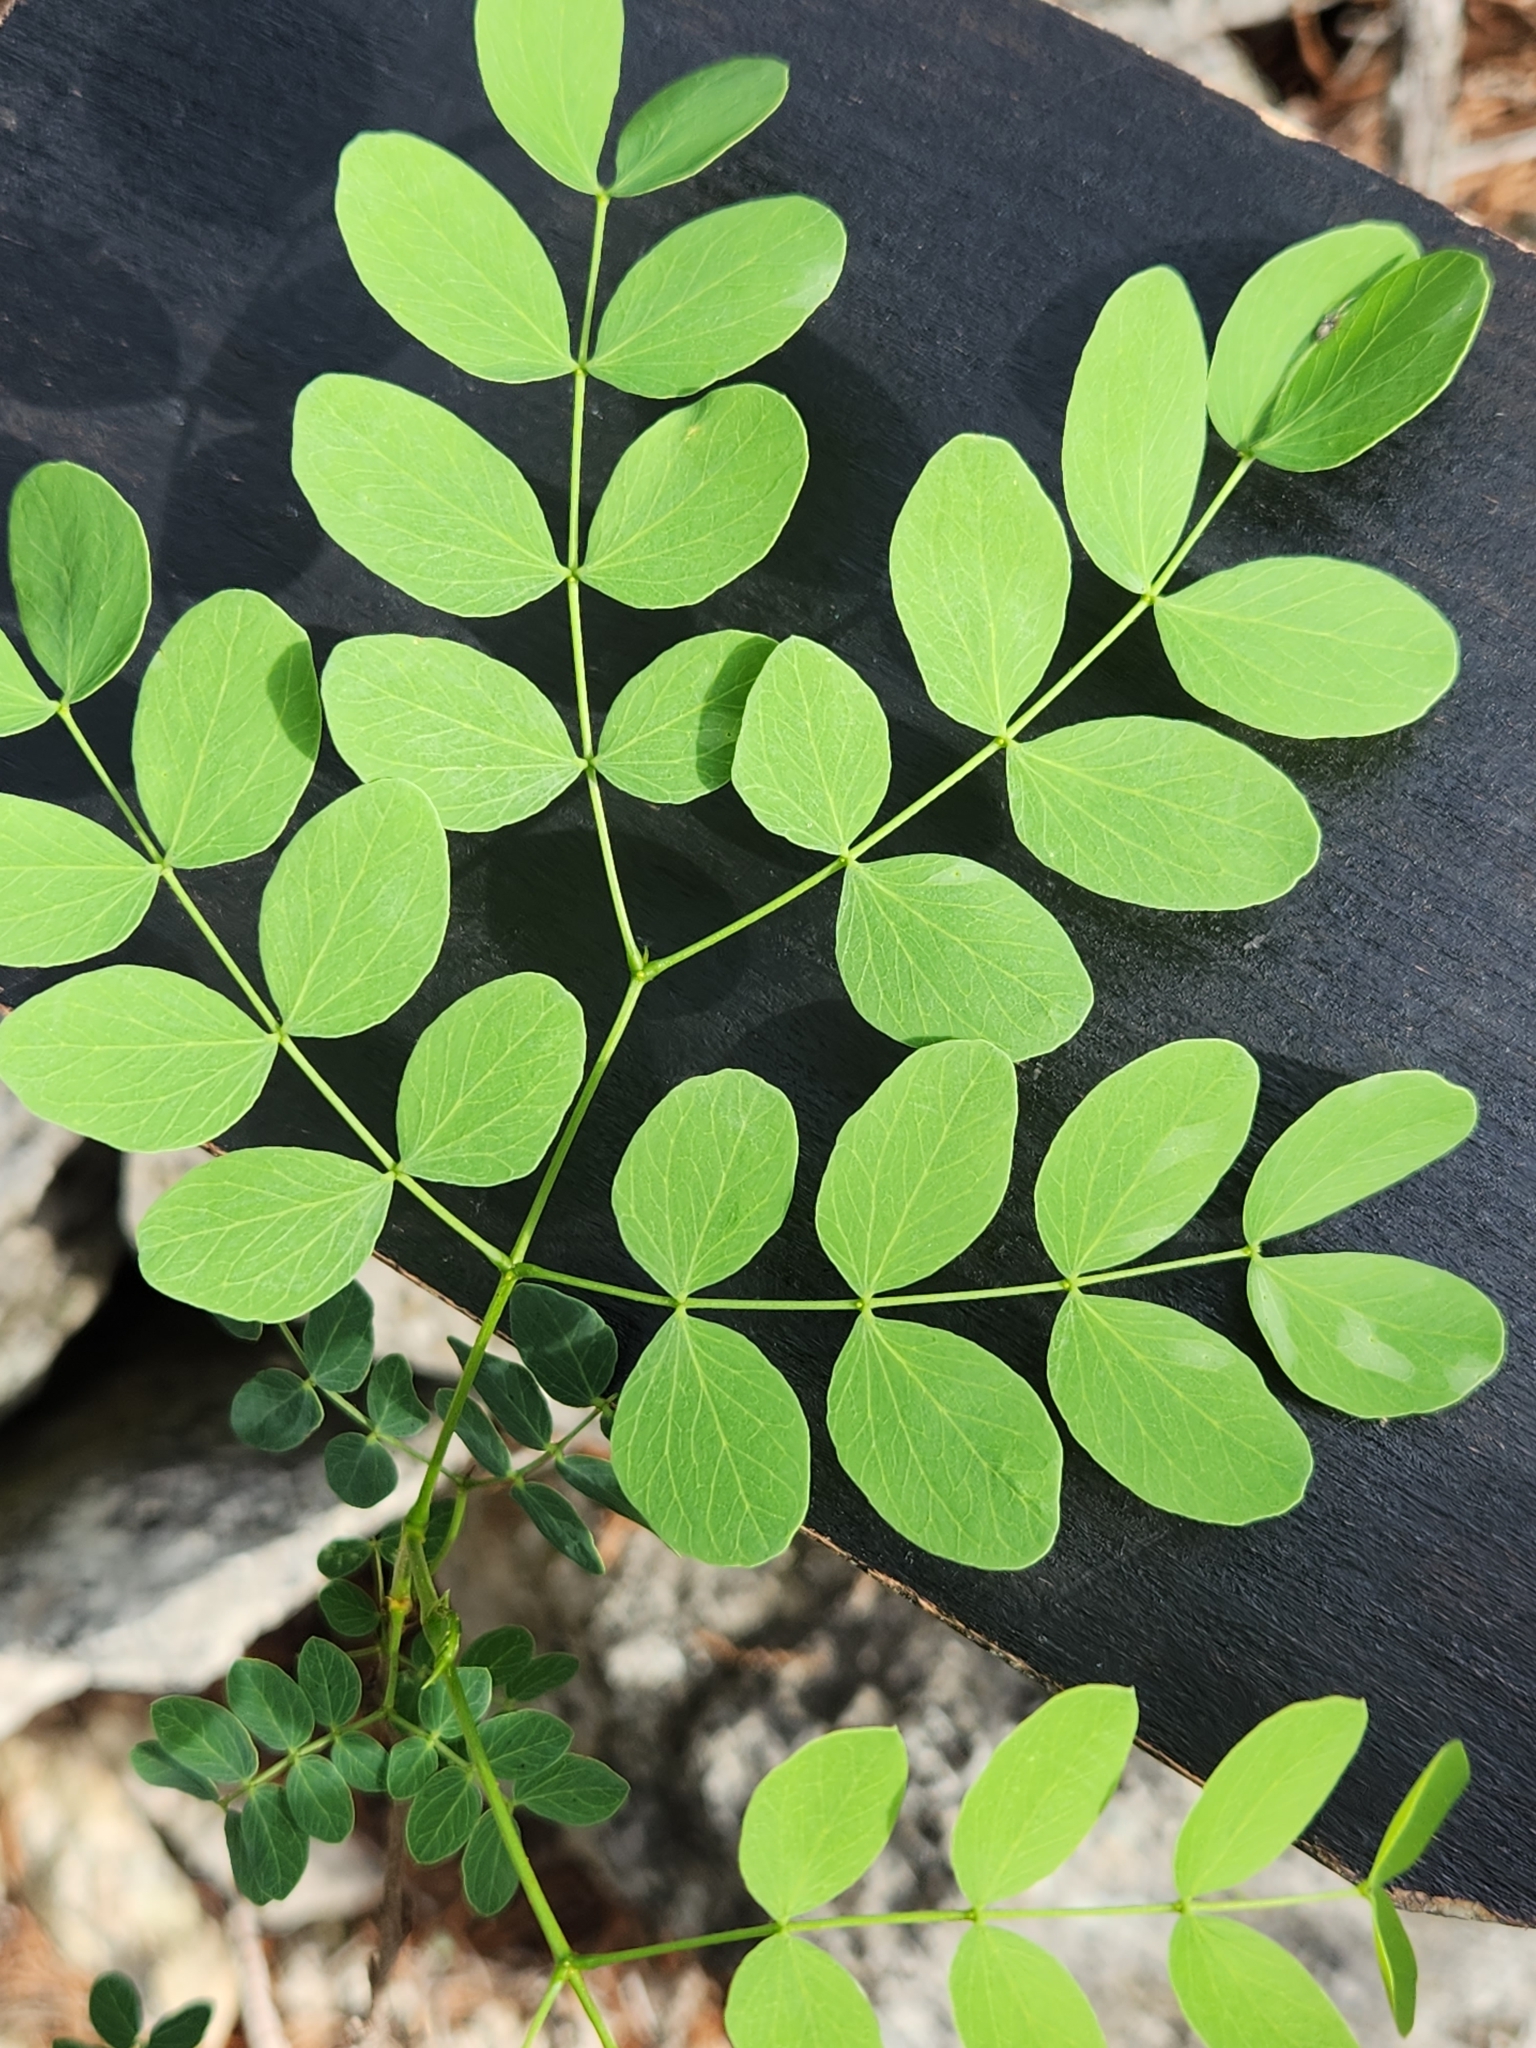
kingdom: Plantae
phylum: Tracheophyta
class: Magnoliopsida
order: Fabales
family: Fabaceae
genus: Leucaena
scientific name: Leucaena retusa
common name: Littleleaf leadtree
